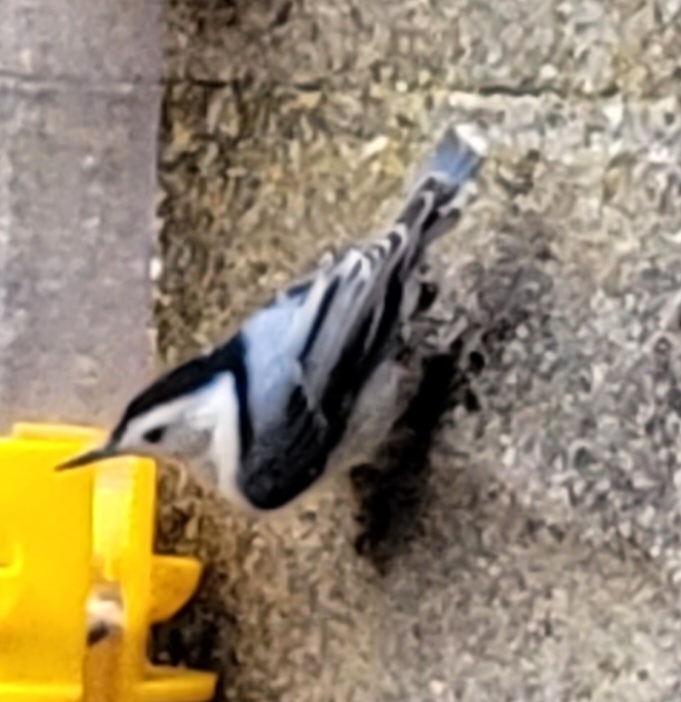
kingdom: Animalia
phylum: Chordata
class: Aves
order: Passeriformes
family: Sittidae
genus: Sitta
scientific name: Sitta carolinensis
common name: White-breasted nuthatch
